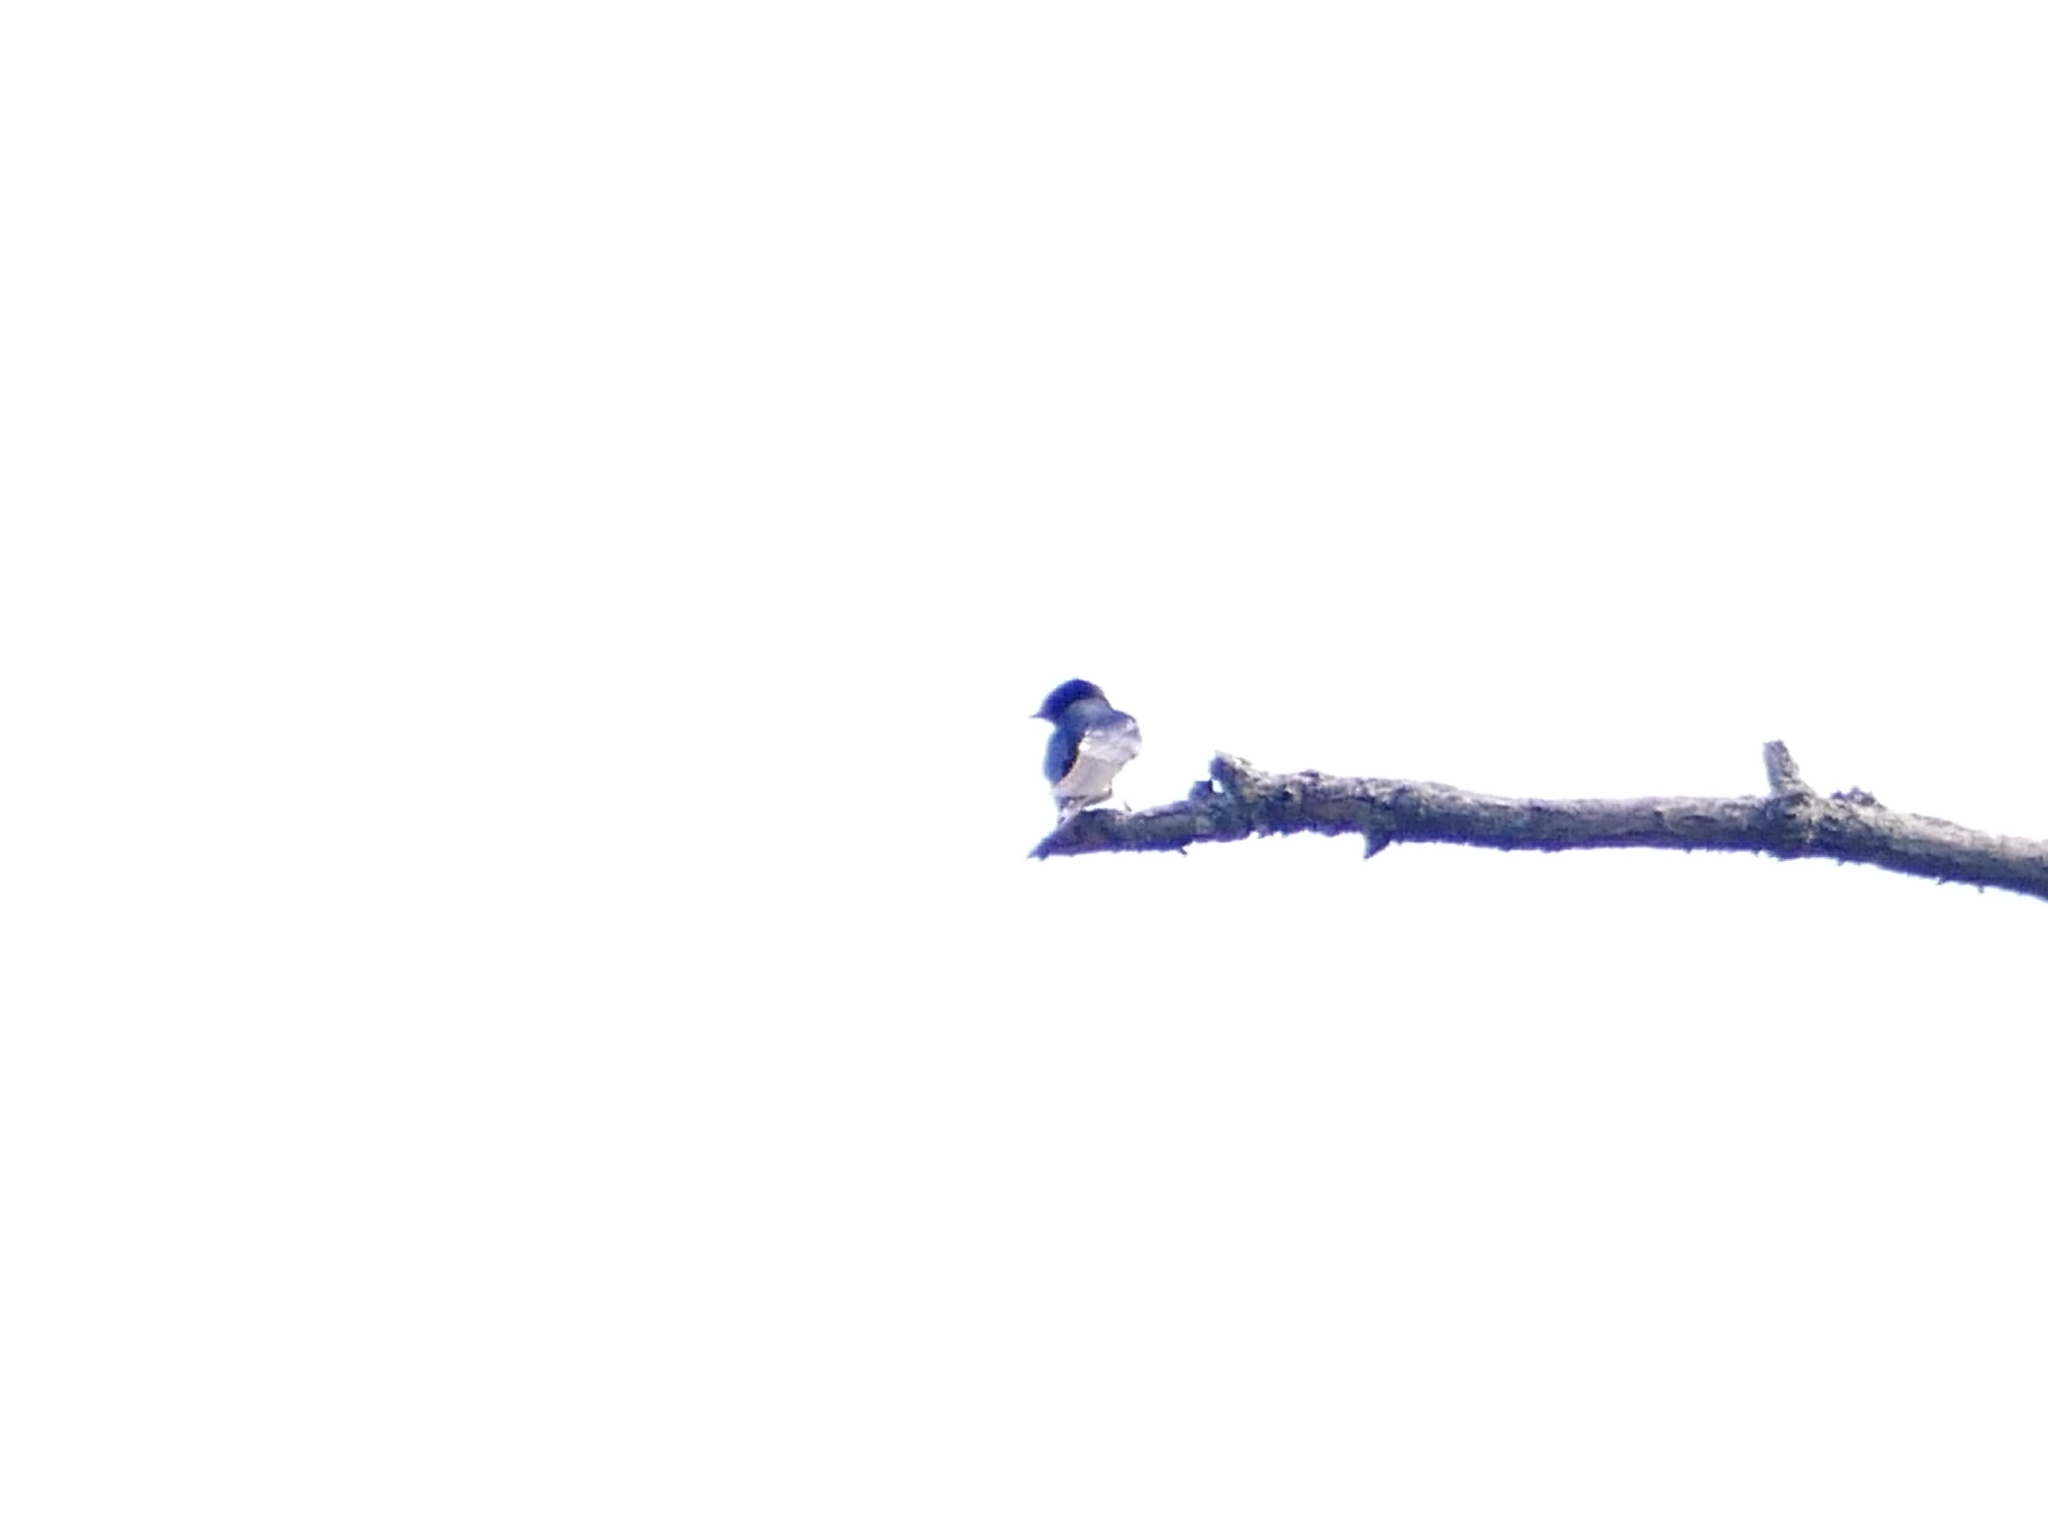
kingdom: Animalia
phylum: Chordata
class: Aves
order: Passeriformes
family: Hirundinidae
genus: Hirundo
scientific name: Hirundo rustica
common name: Barn swallow
